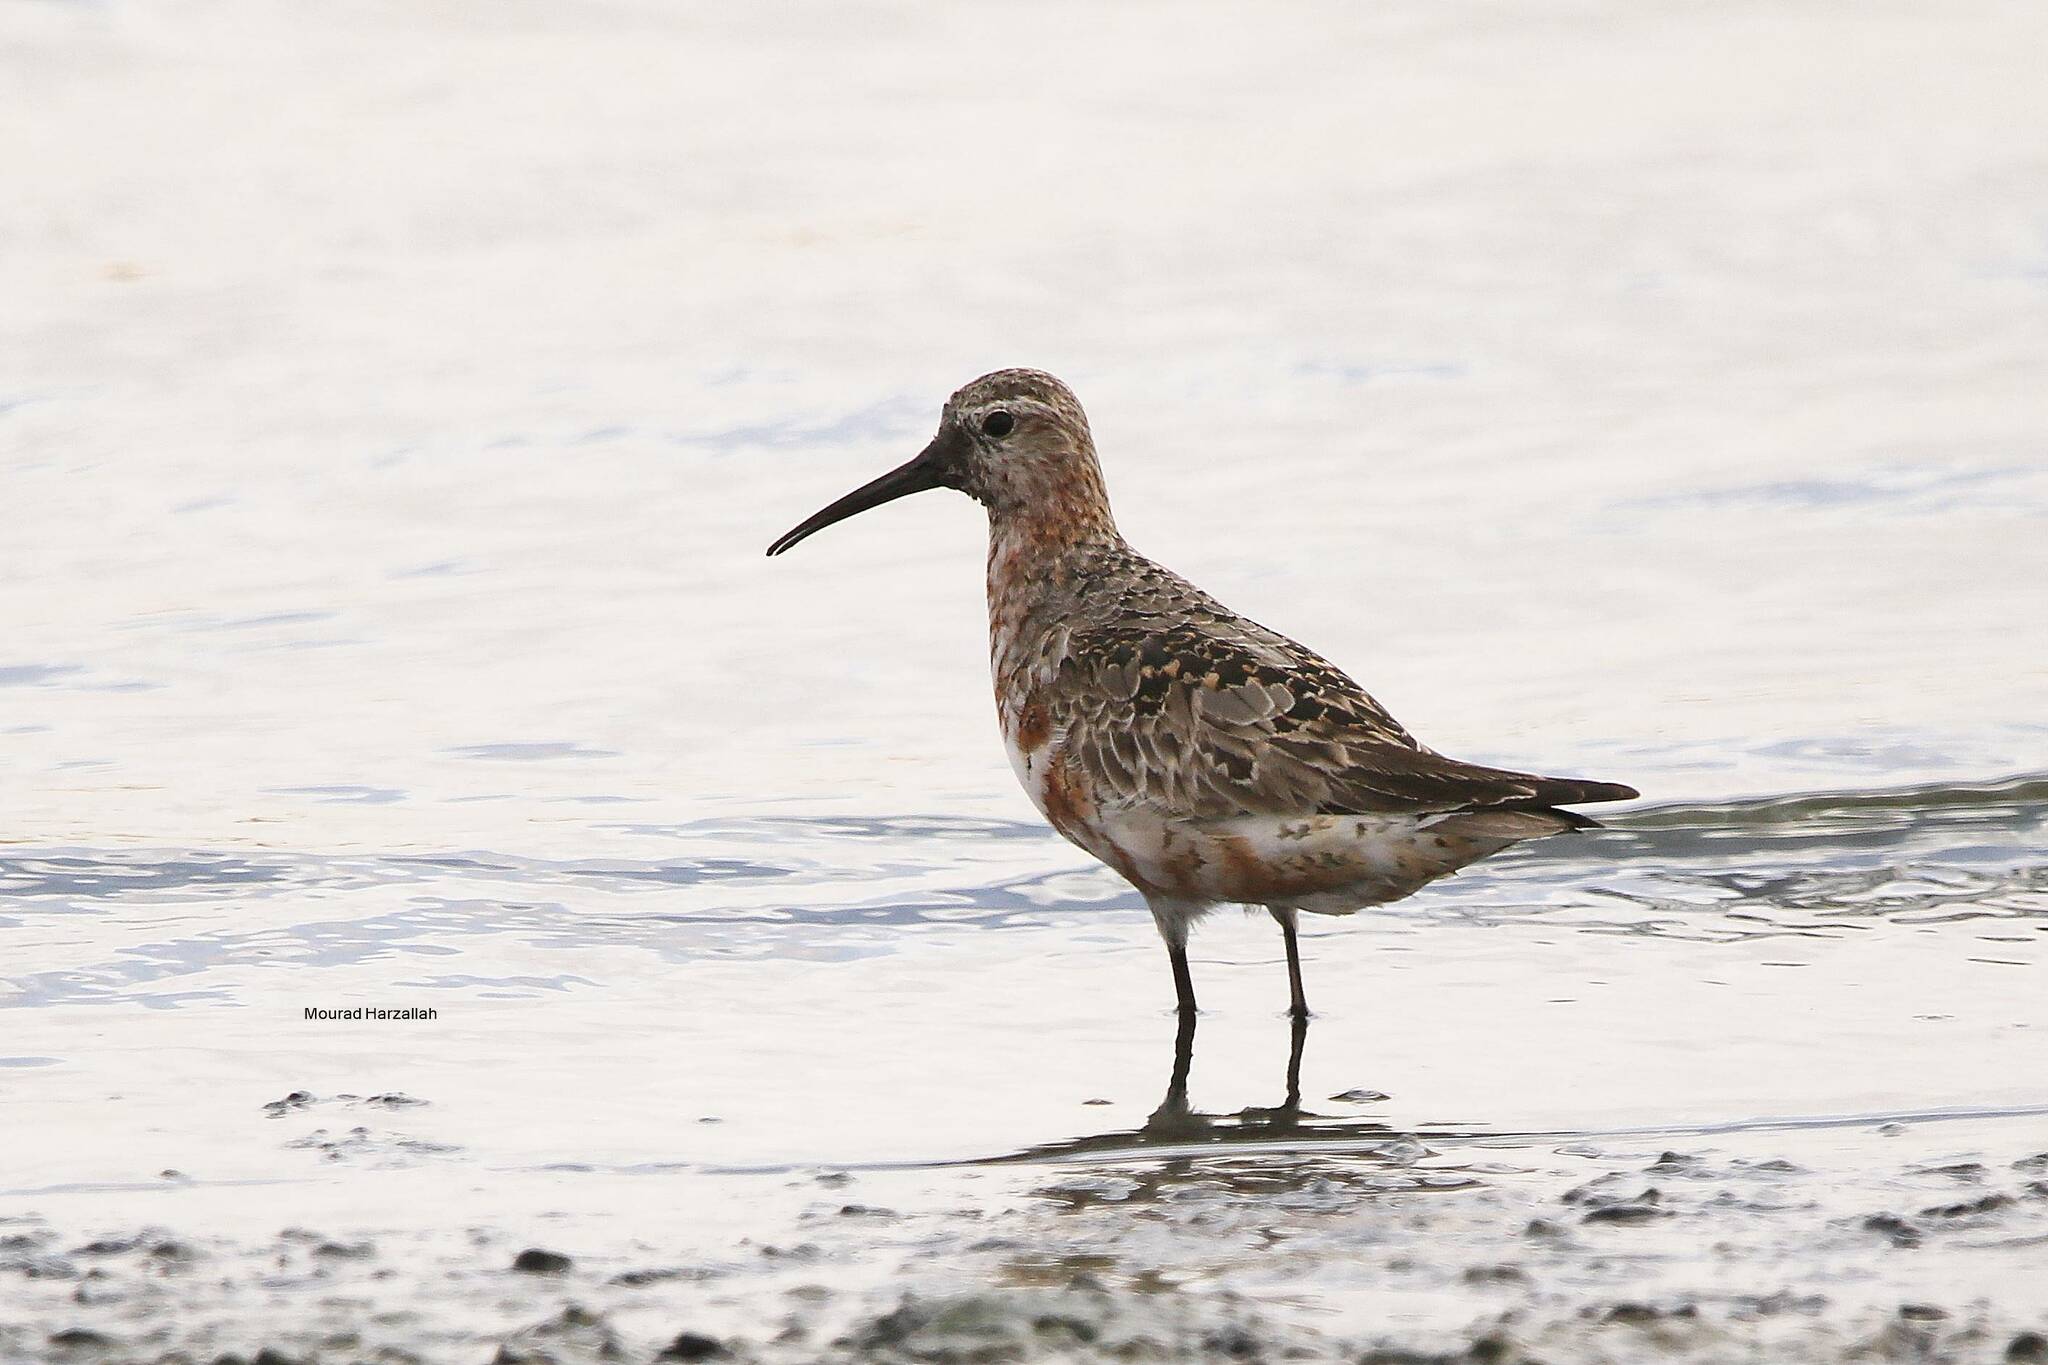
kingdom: Animalia
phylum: Chordata
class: Aves
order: Charadriiformes
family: Scolopacidae
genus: Calidris
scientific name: Calidris ferruginea
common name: Curlew sandpiper
